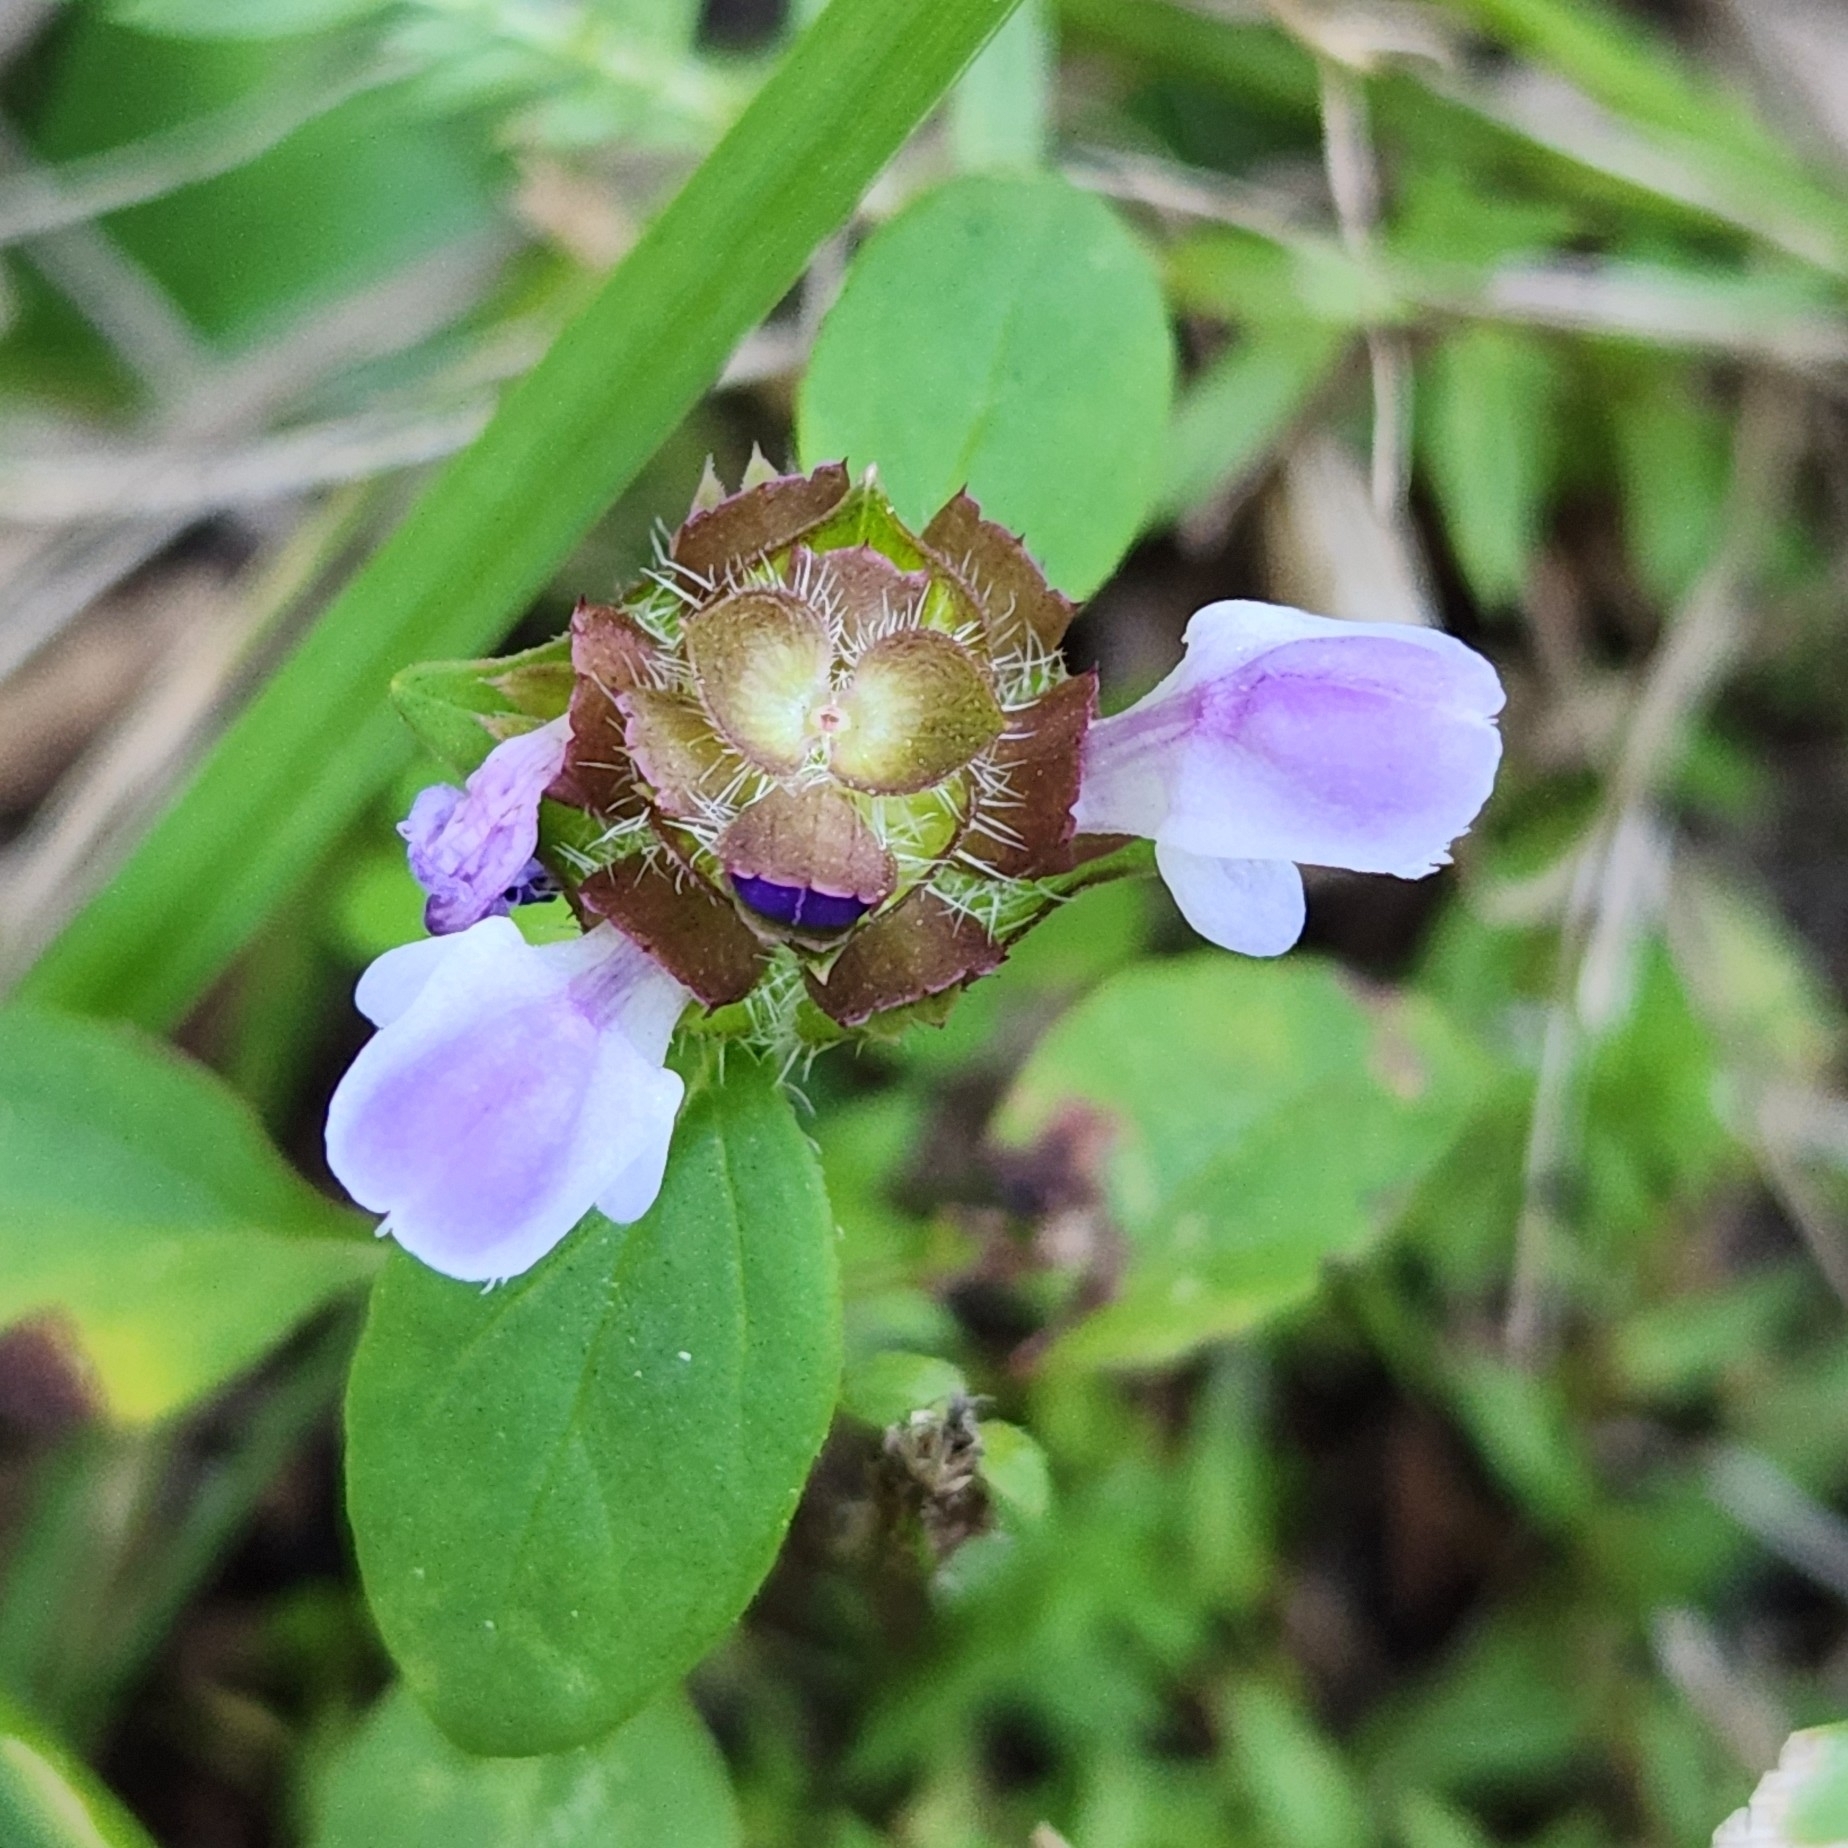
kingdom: Plantae
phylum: Tracheophyta
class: Magnoliopsida
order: Lamiales
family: Lamiaceae
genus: Prunella
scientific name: Prunella vulgaris
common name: Heal-all
